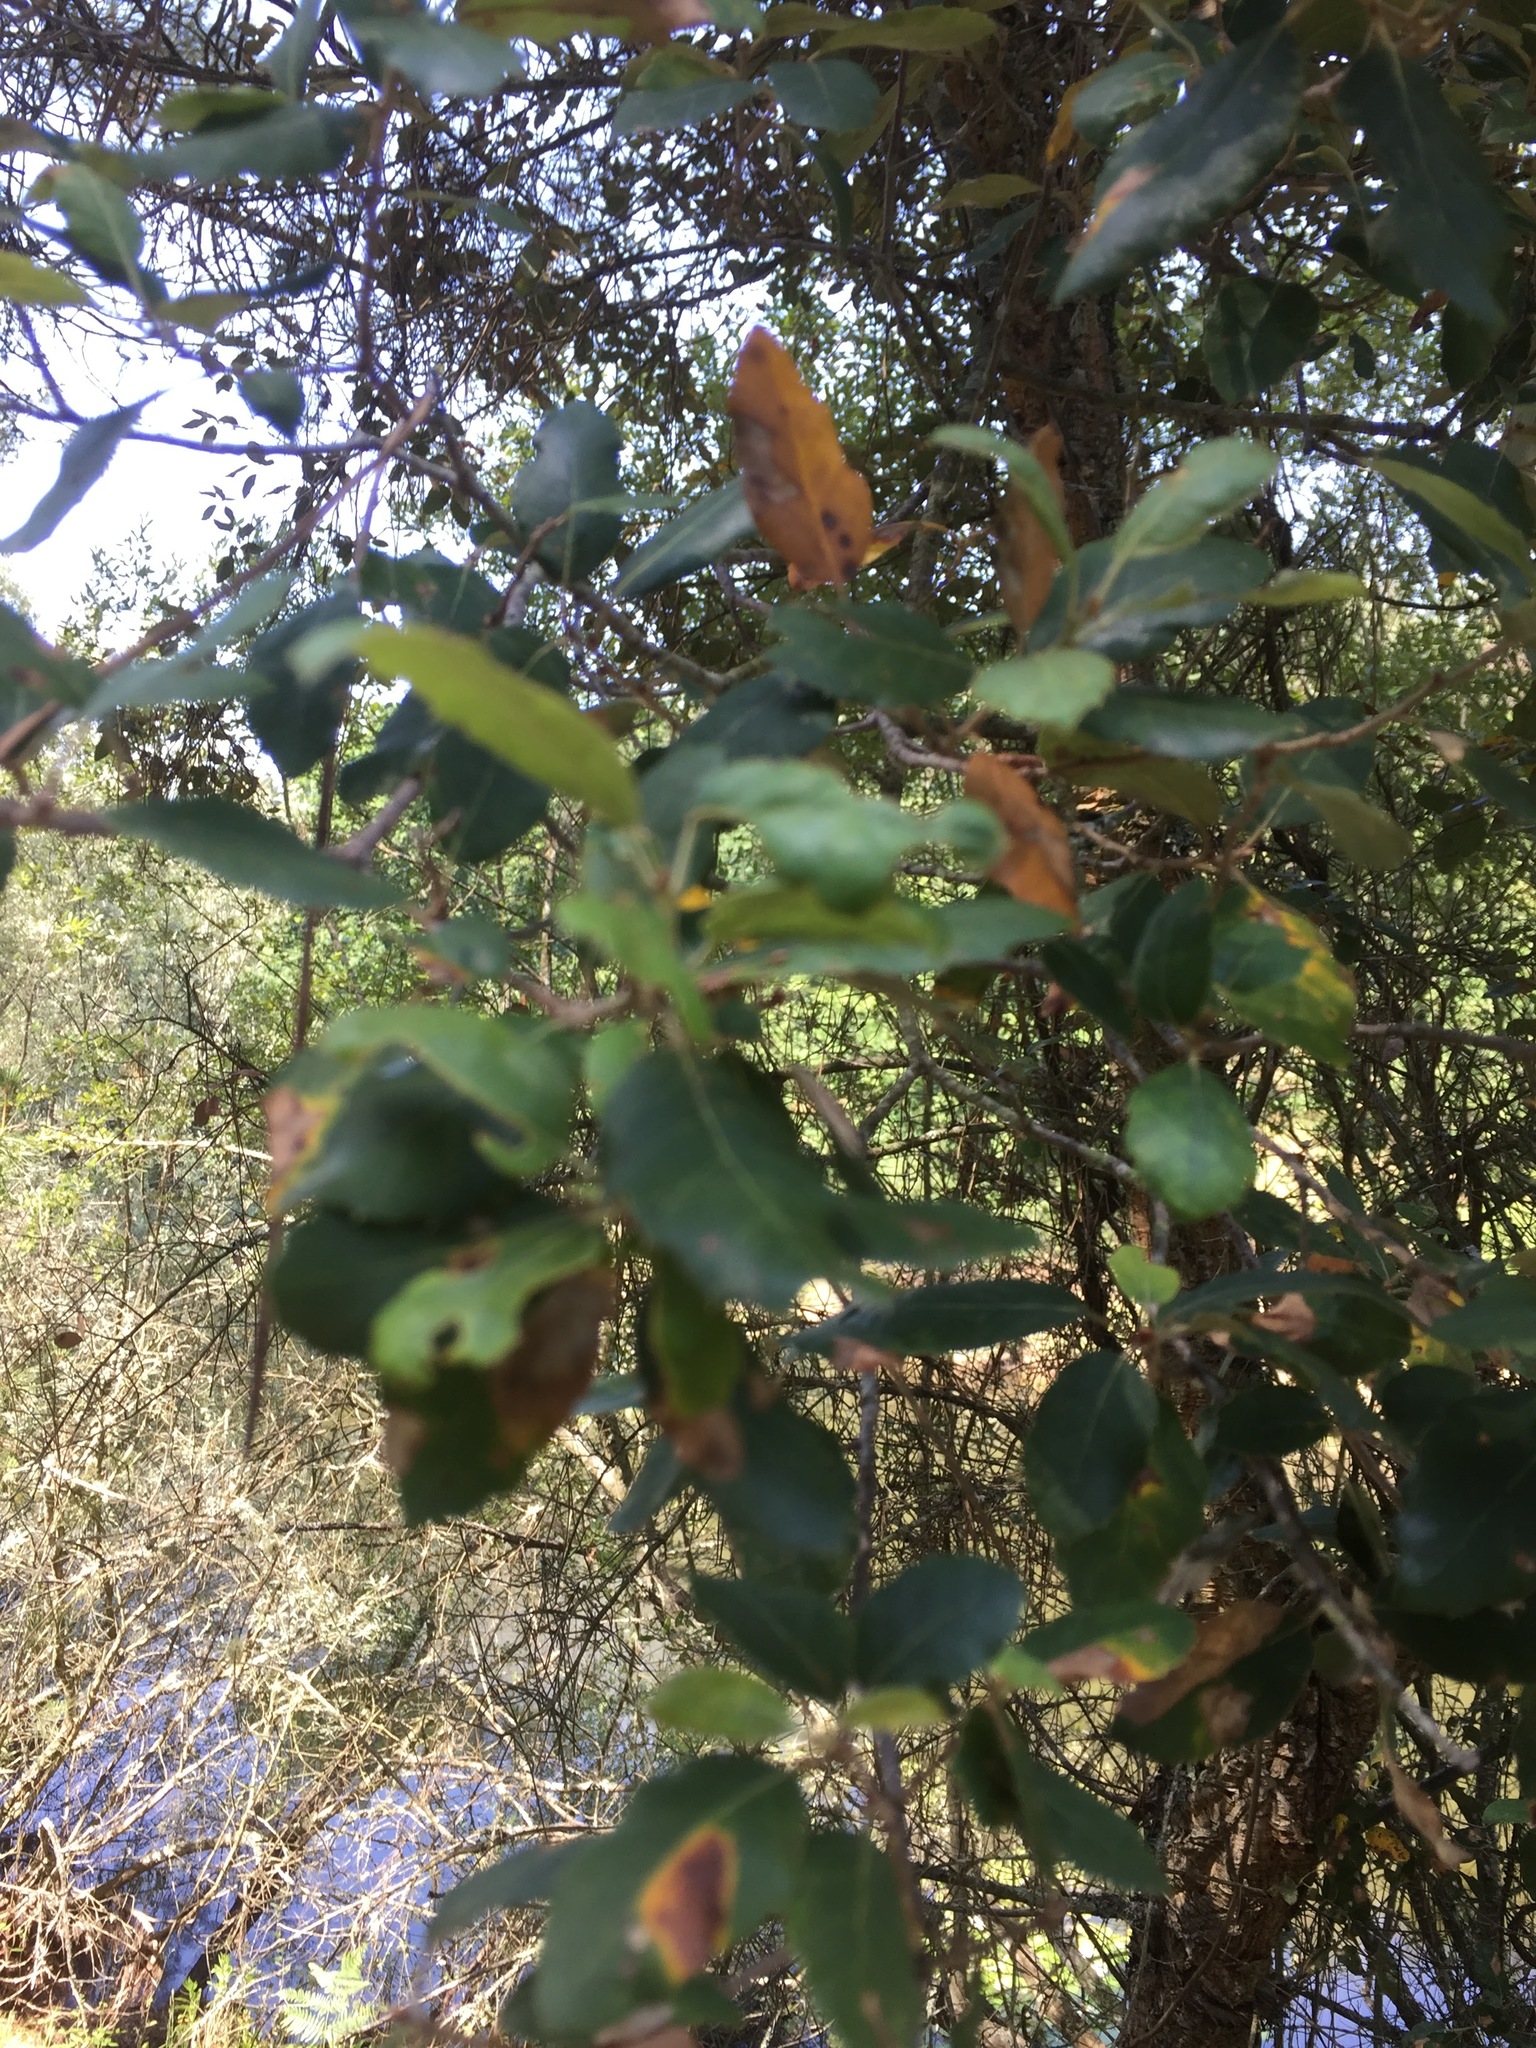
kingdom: Plantae
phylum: Tracheophyta
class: Magnoliopsida
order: Fagales
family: Fagaceae
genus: Quercus
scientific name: Quercus suber
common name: Cork oak
